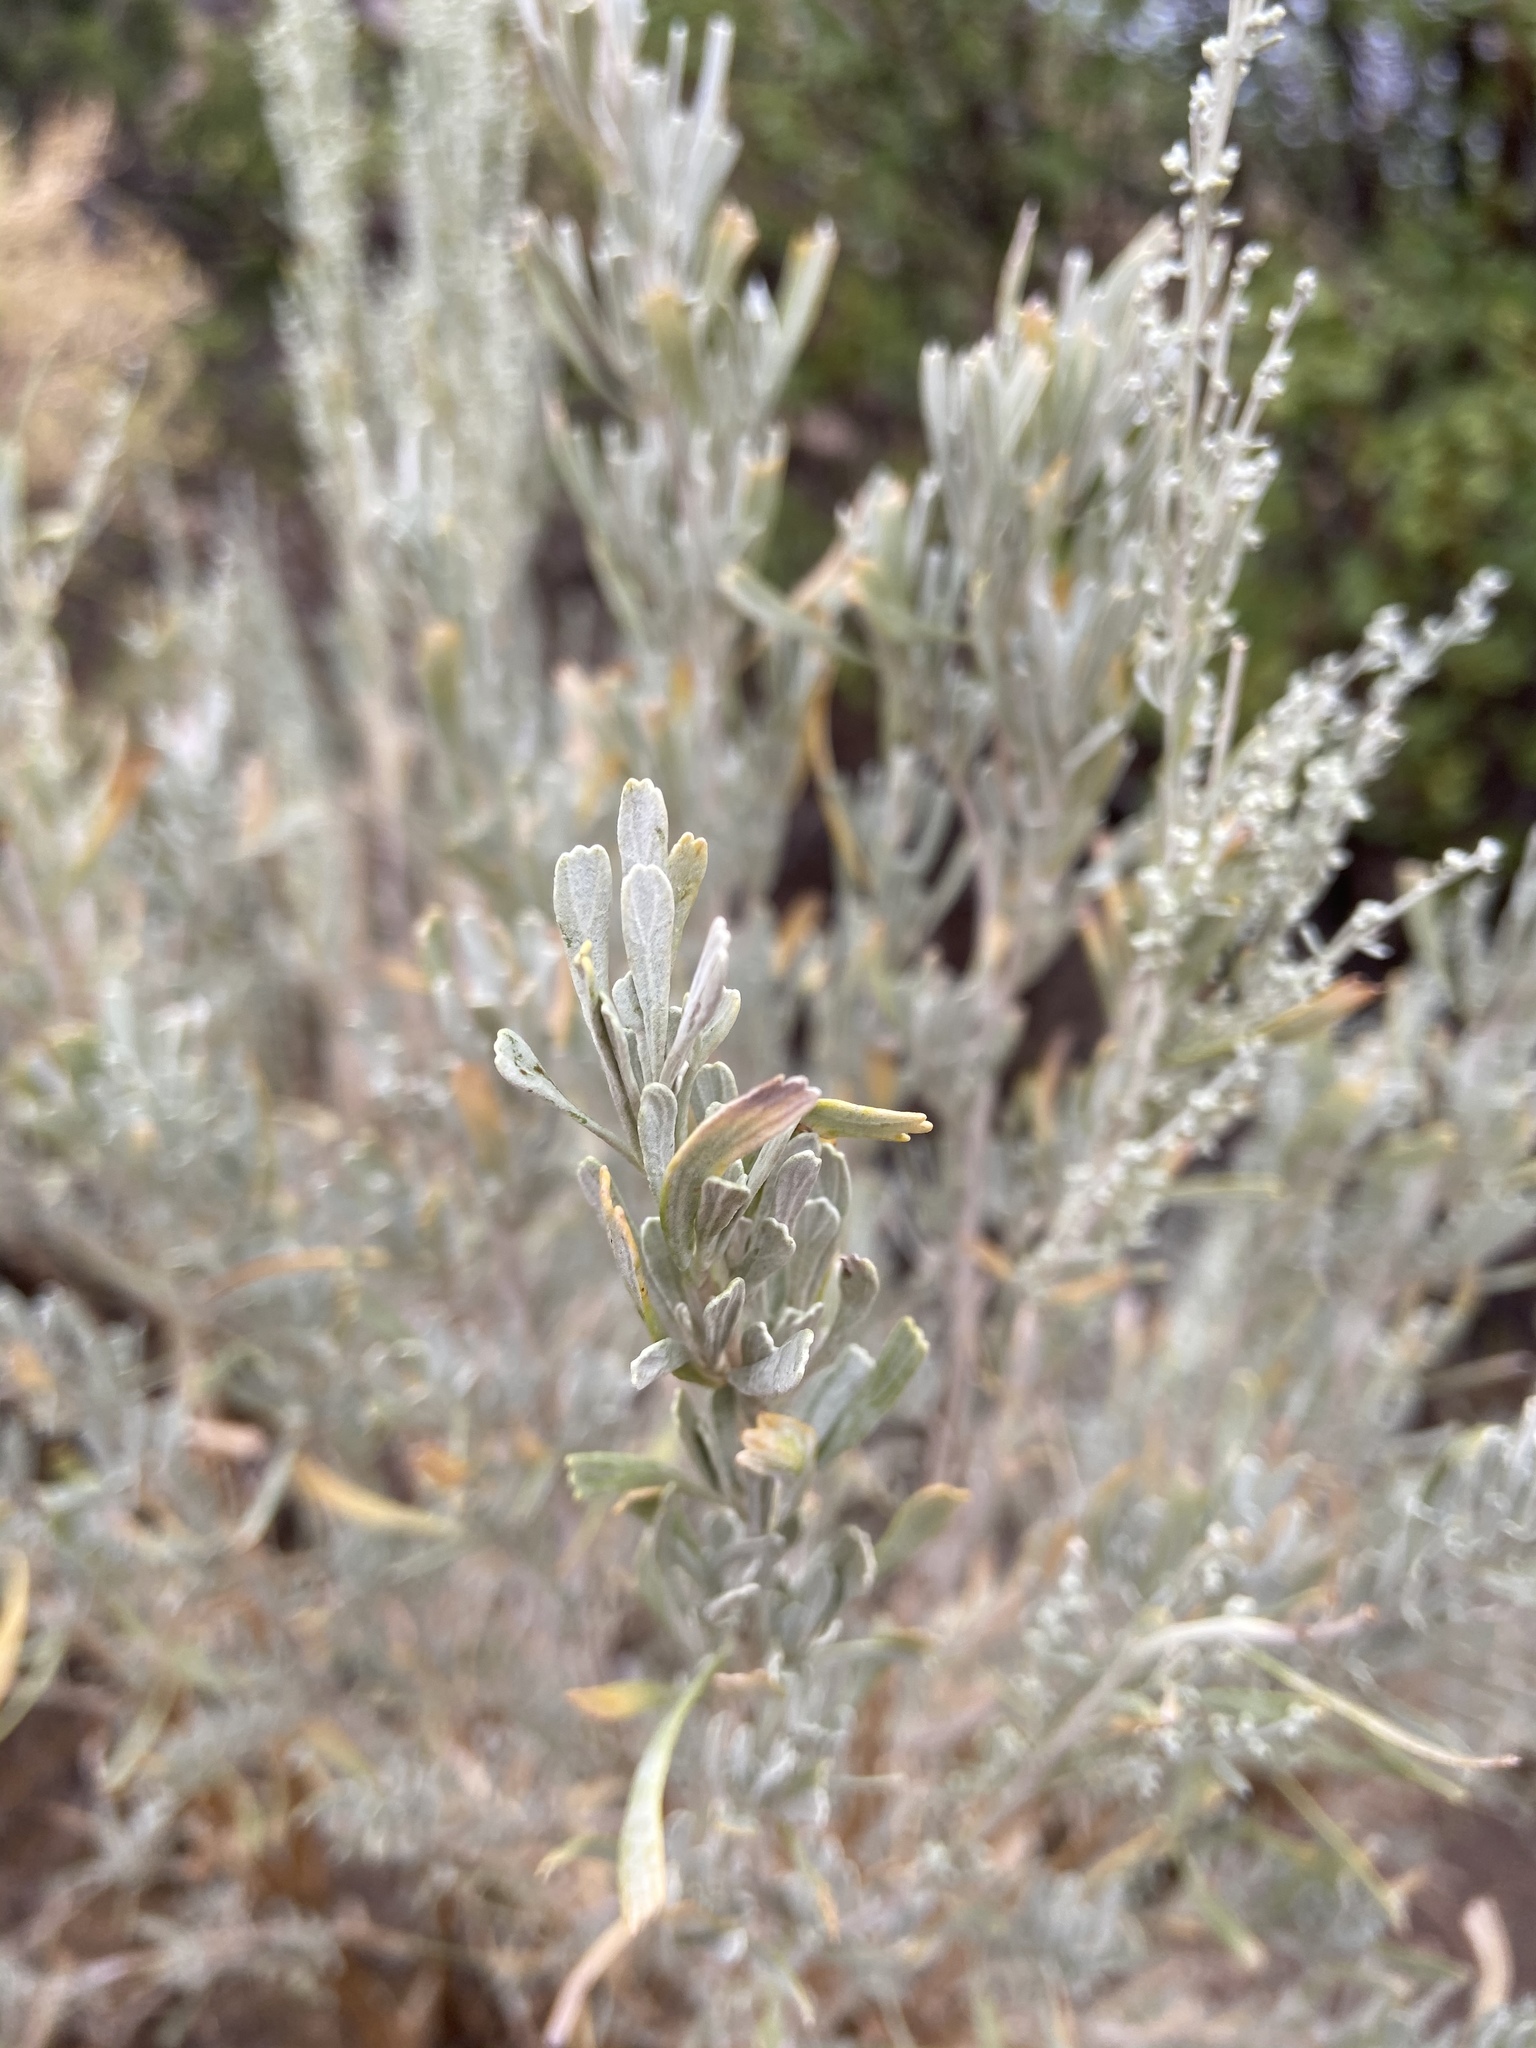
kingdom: Plantae
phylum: Tracheophyta
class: Magnoliopsida
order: Asterales
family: Asteraceae
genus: Artemisia
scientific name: Artemisia tridentata
